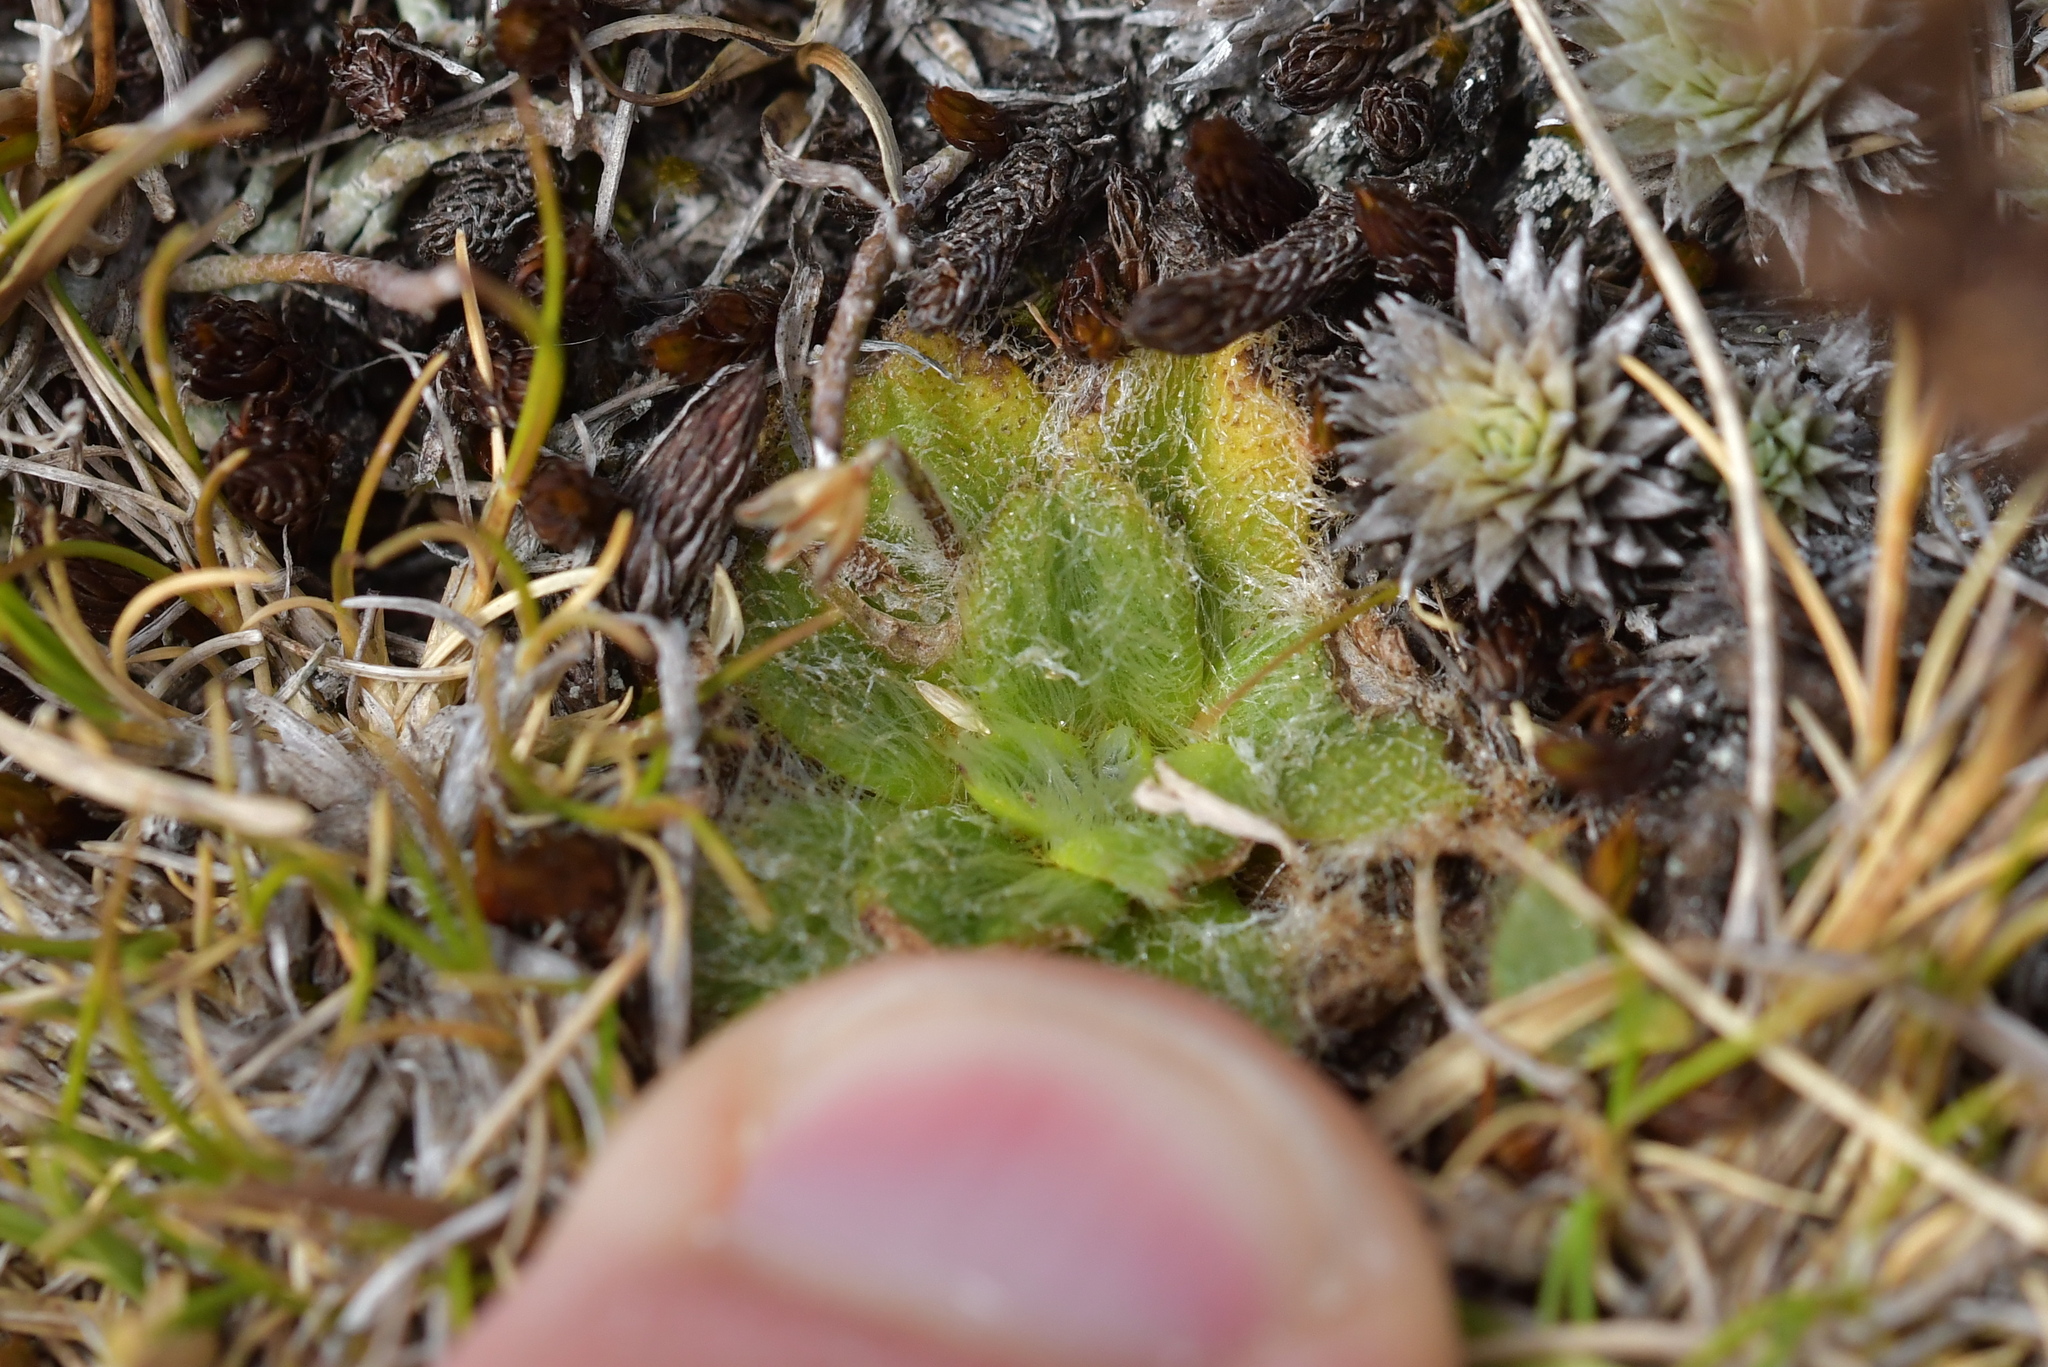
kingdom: Plantae
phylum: Tracheophyta
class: Magnoliopsida
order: Lamiales
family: Plantaginaceae
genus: Plantago
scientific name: Plantago lanigera
